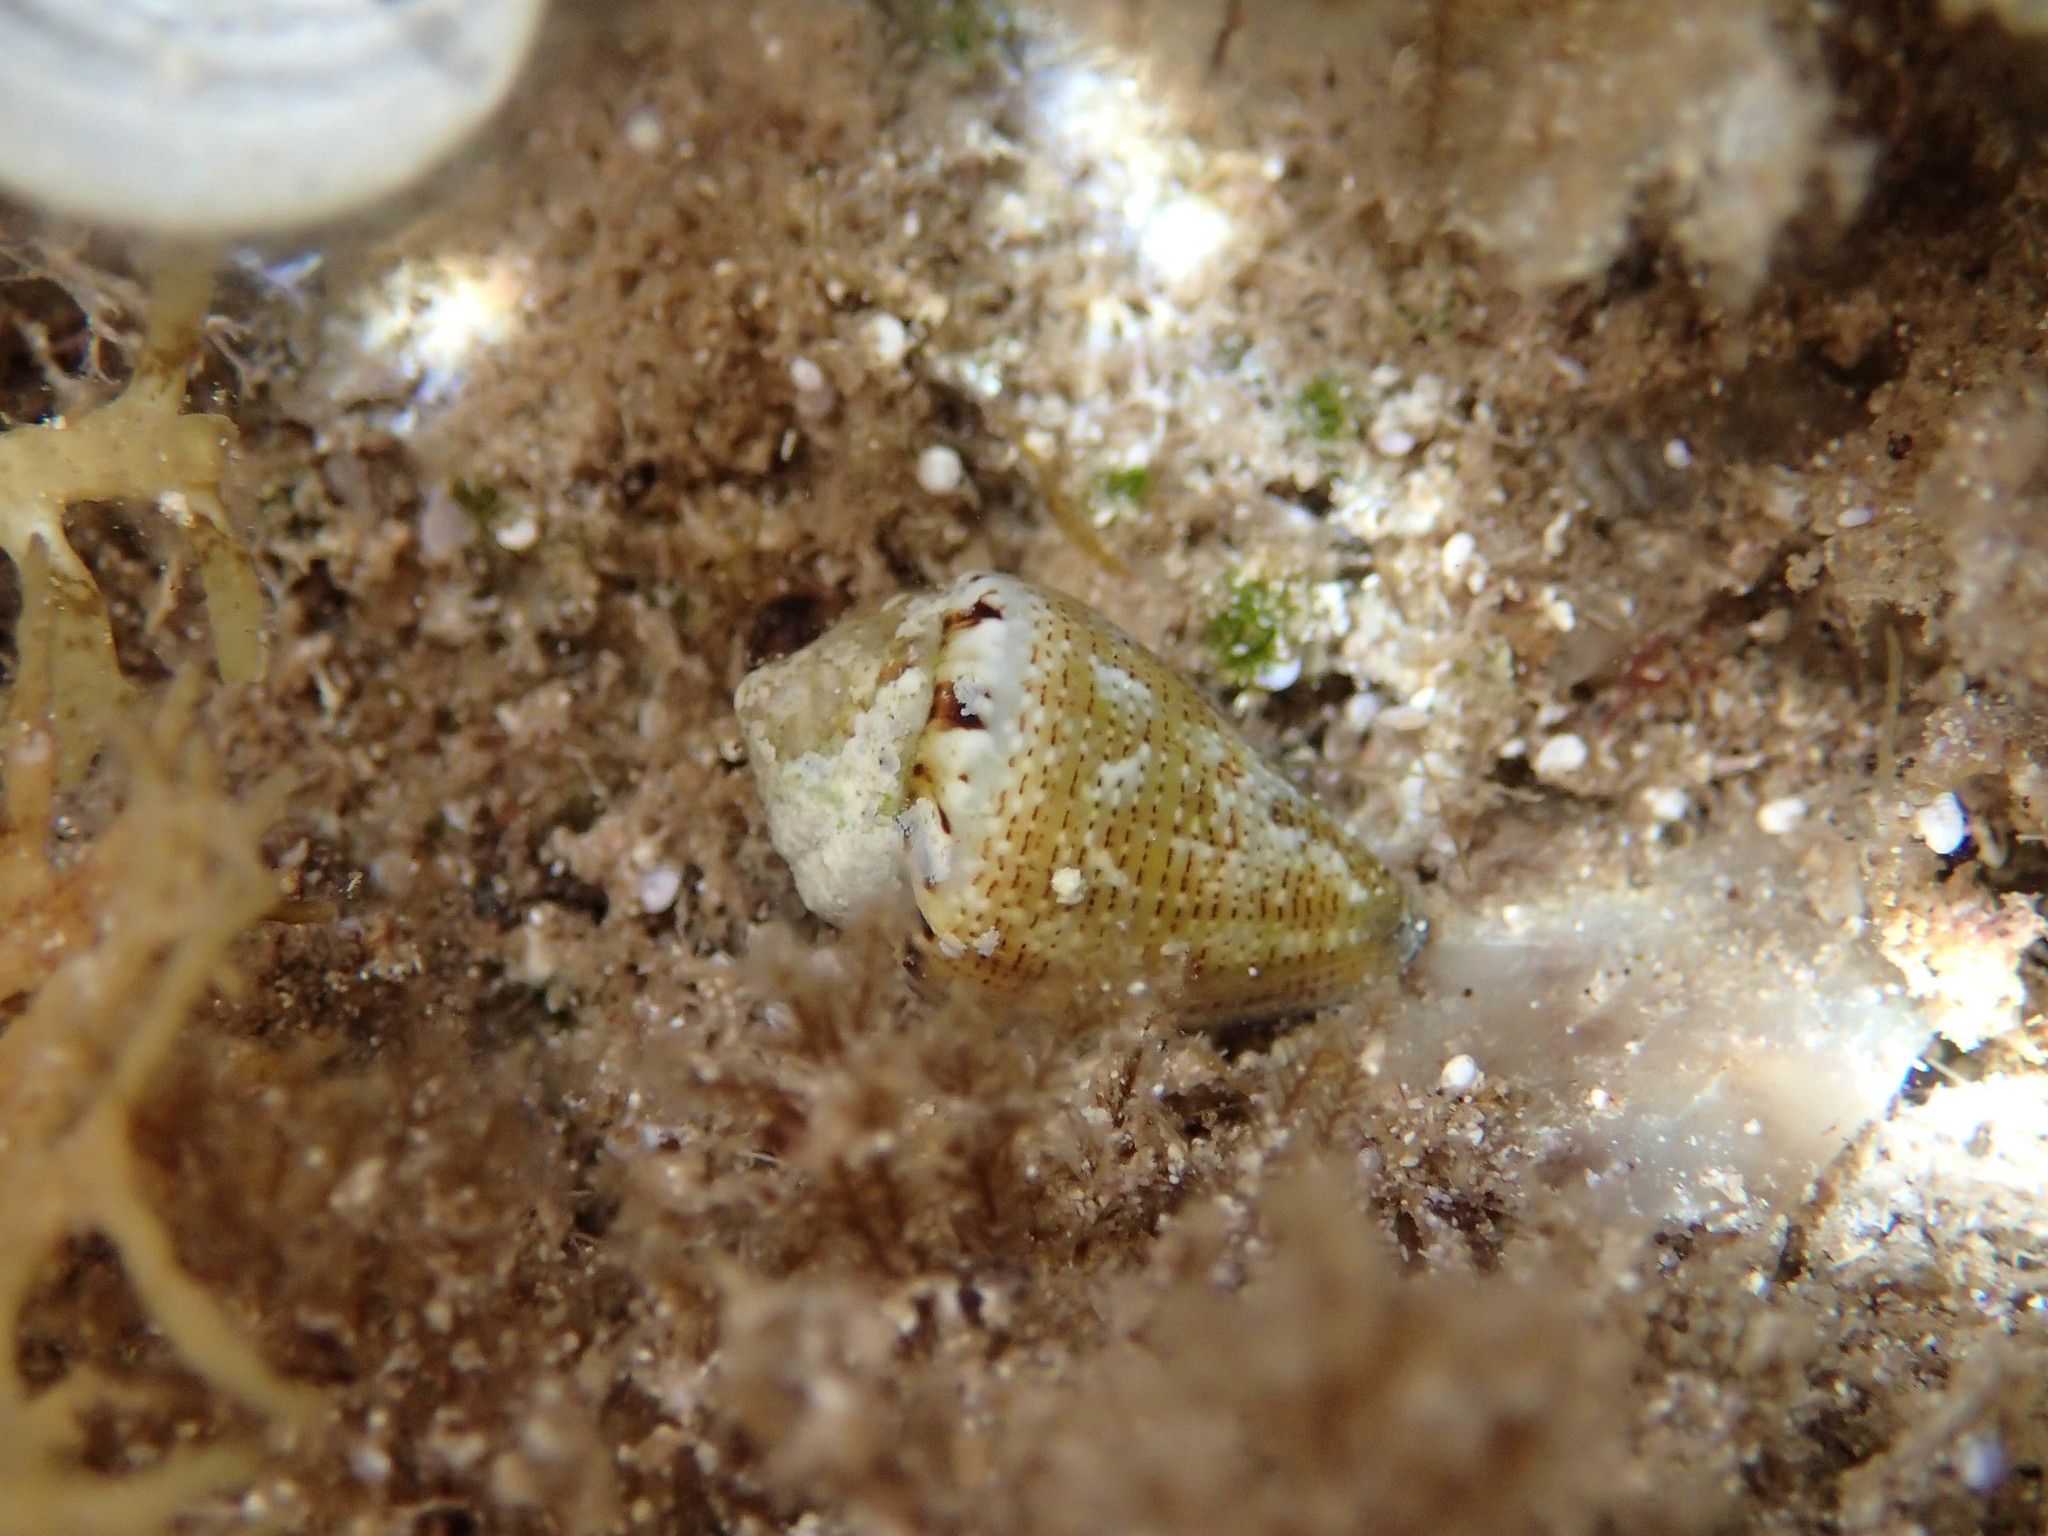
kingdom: Animalia
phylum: Mollusca
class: Gastropoda
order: Neogastropoda
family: Conidae
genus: Conus
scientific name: Conus ventricosus
